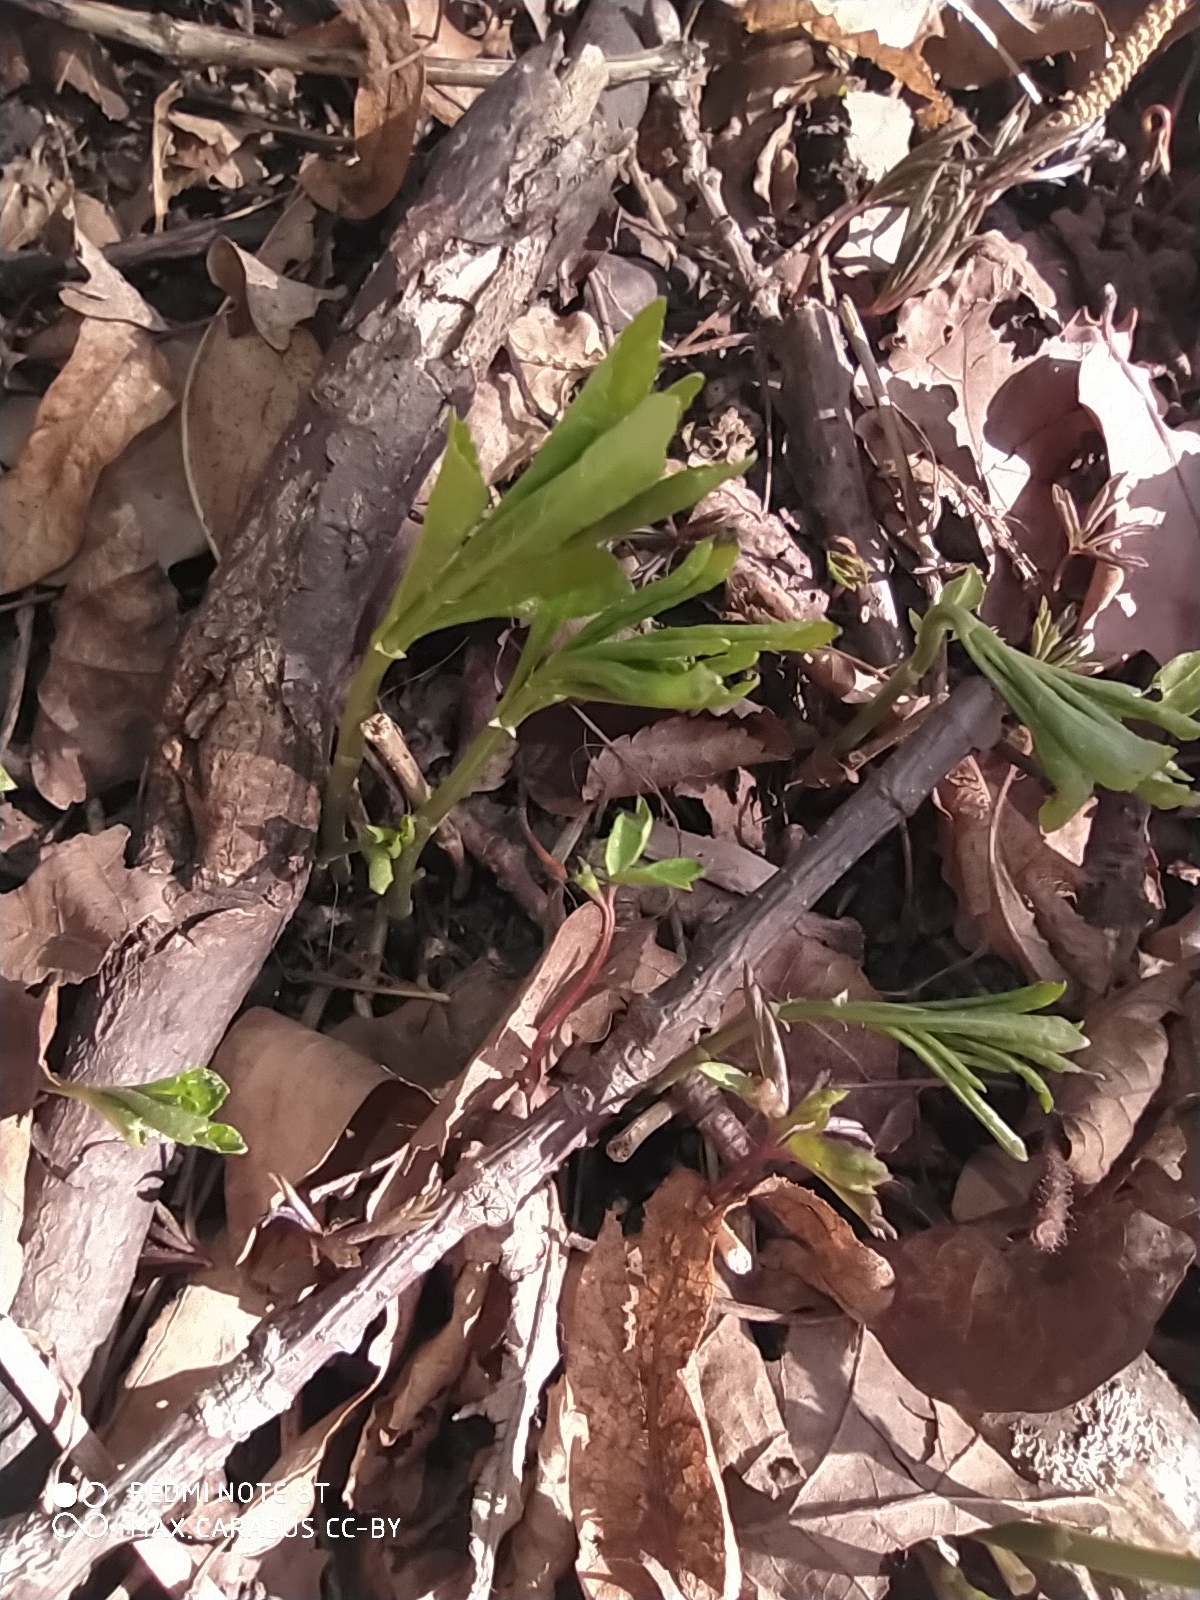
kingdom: Plantae
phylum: Tracheophyta
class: Magnoliopsida
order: Malpighiales
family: Euphorbiaceae
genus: Mercurialis
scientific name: Mercurialis perennis
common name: Dog mercury
